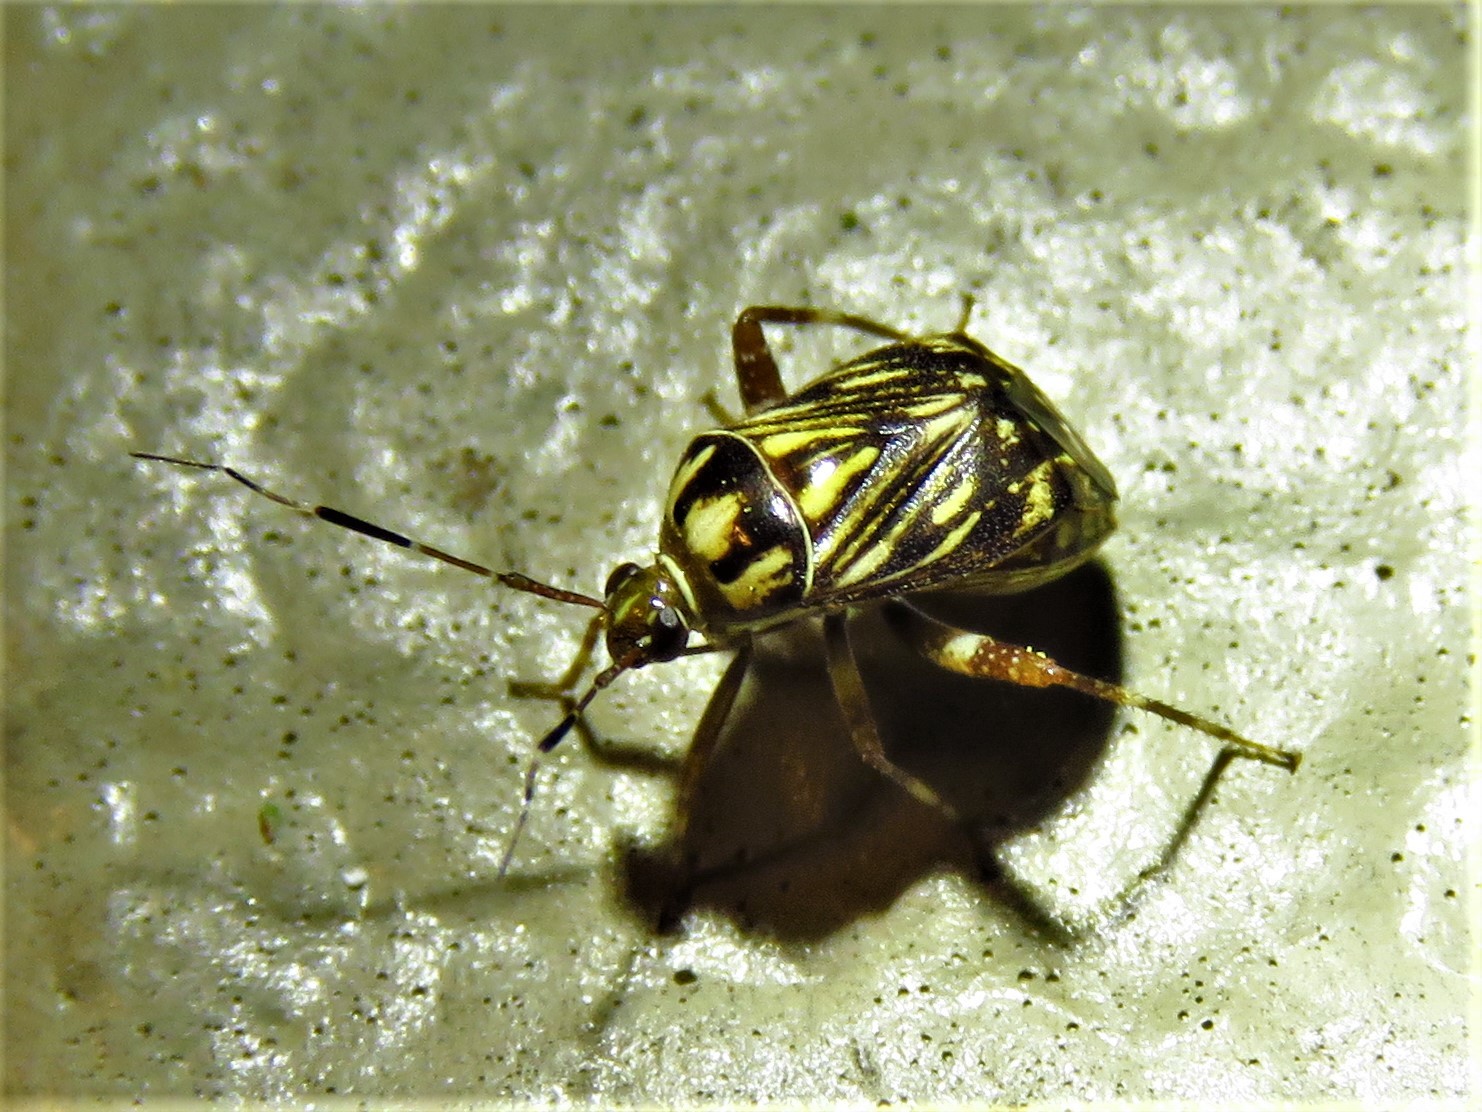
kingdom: Animalia
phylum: Arthropoda
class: Insecta
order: Hemiptera
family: Miridae
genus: Taedia
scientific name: Taedia virgulata
